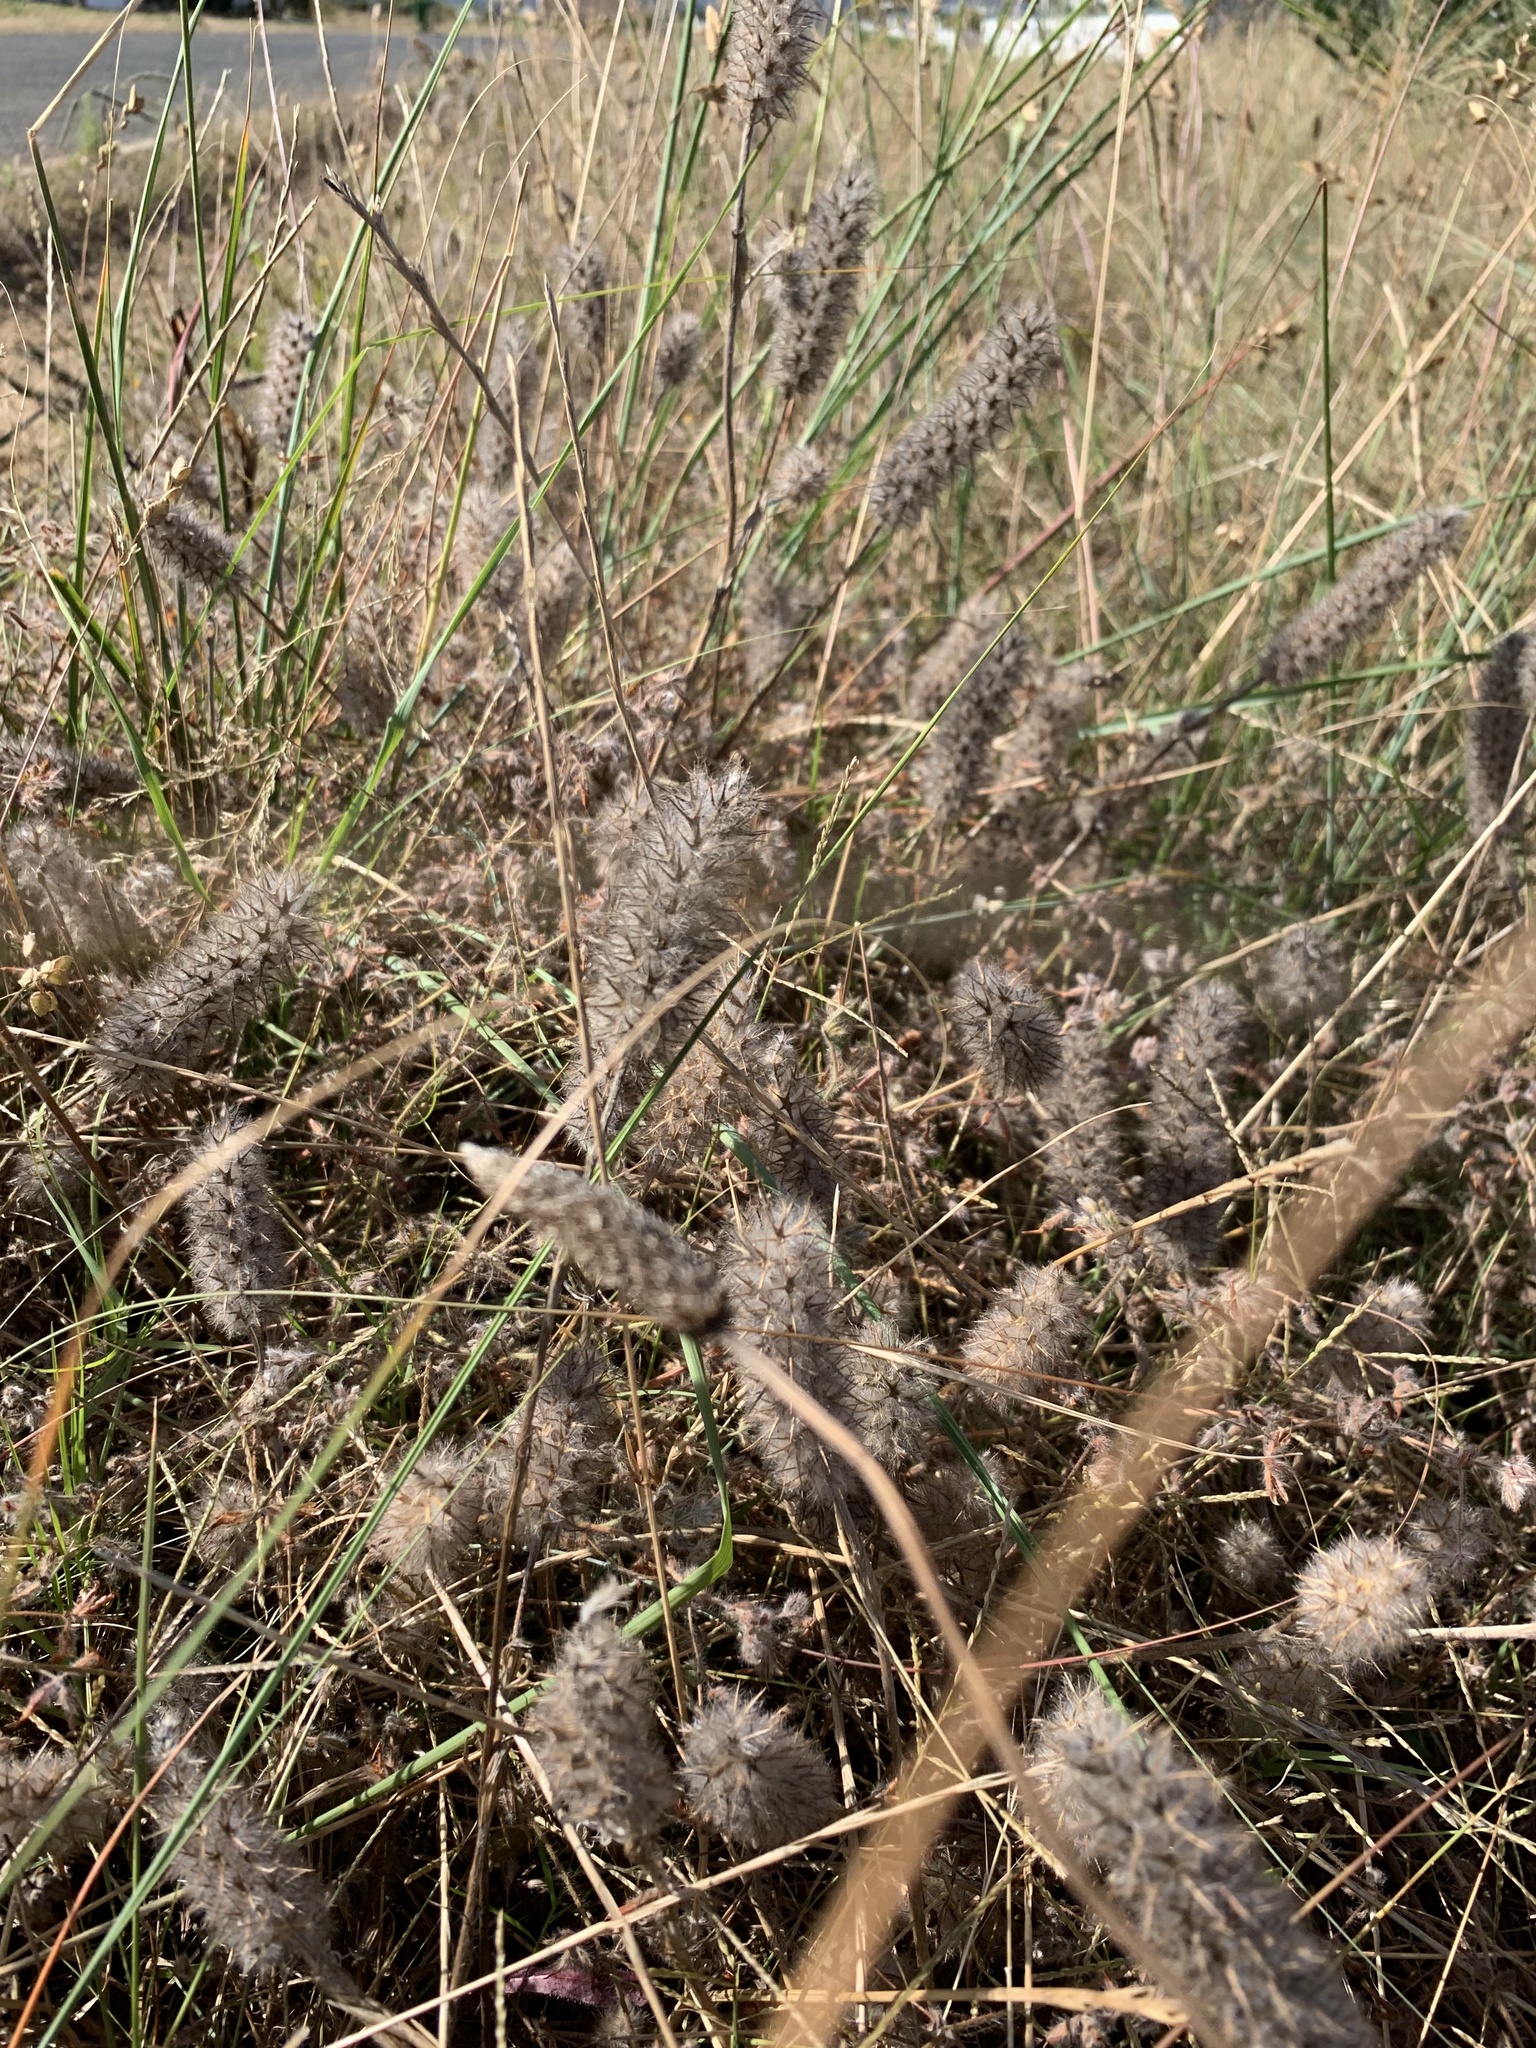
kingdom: Plantae
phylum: Tracheophyta
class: Magnoliopsida
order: Fabales
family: Fabaceae
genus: Trifolium
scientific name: Trifolium angustifolium
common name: Narrow clover
